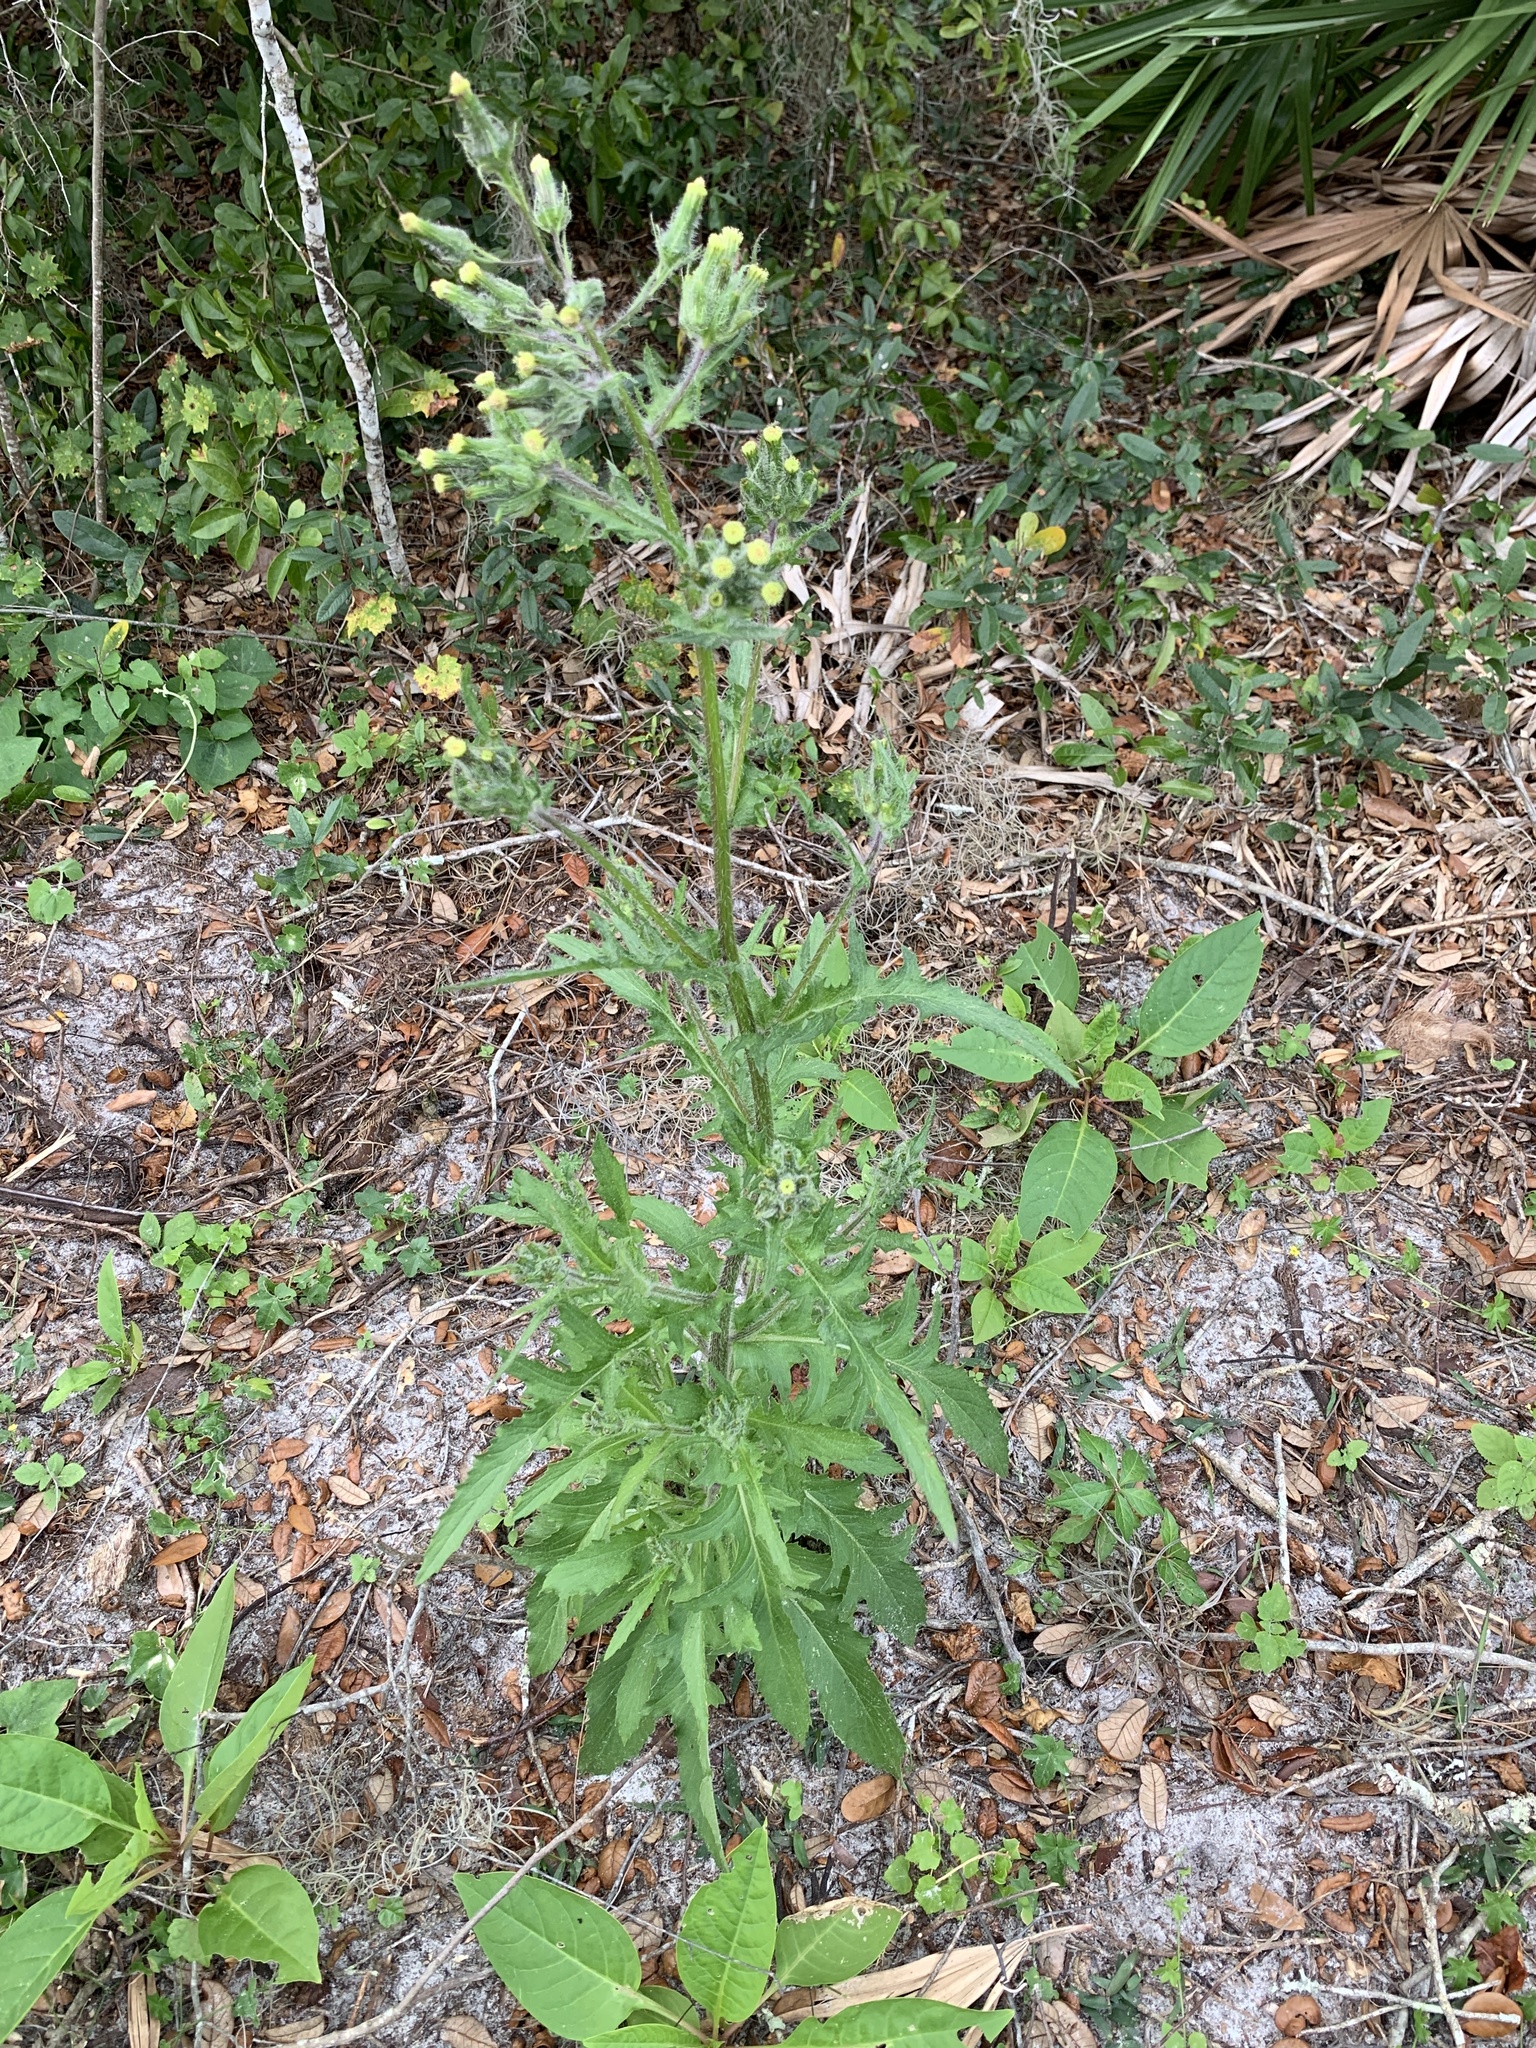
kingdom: Plantae
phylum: Tracheophyta
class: Magnoliopsida
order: Asterales
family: Asteraceae
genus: Erechtites
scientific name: Erechtites hieraciifolius
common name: American burnweed
